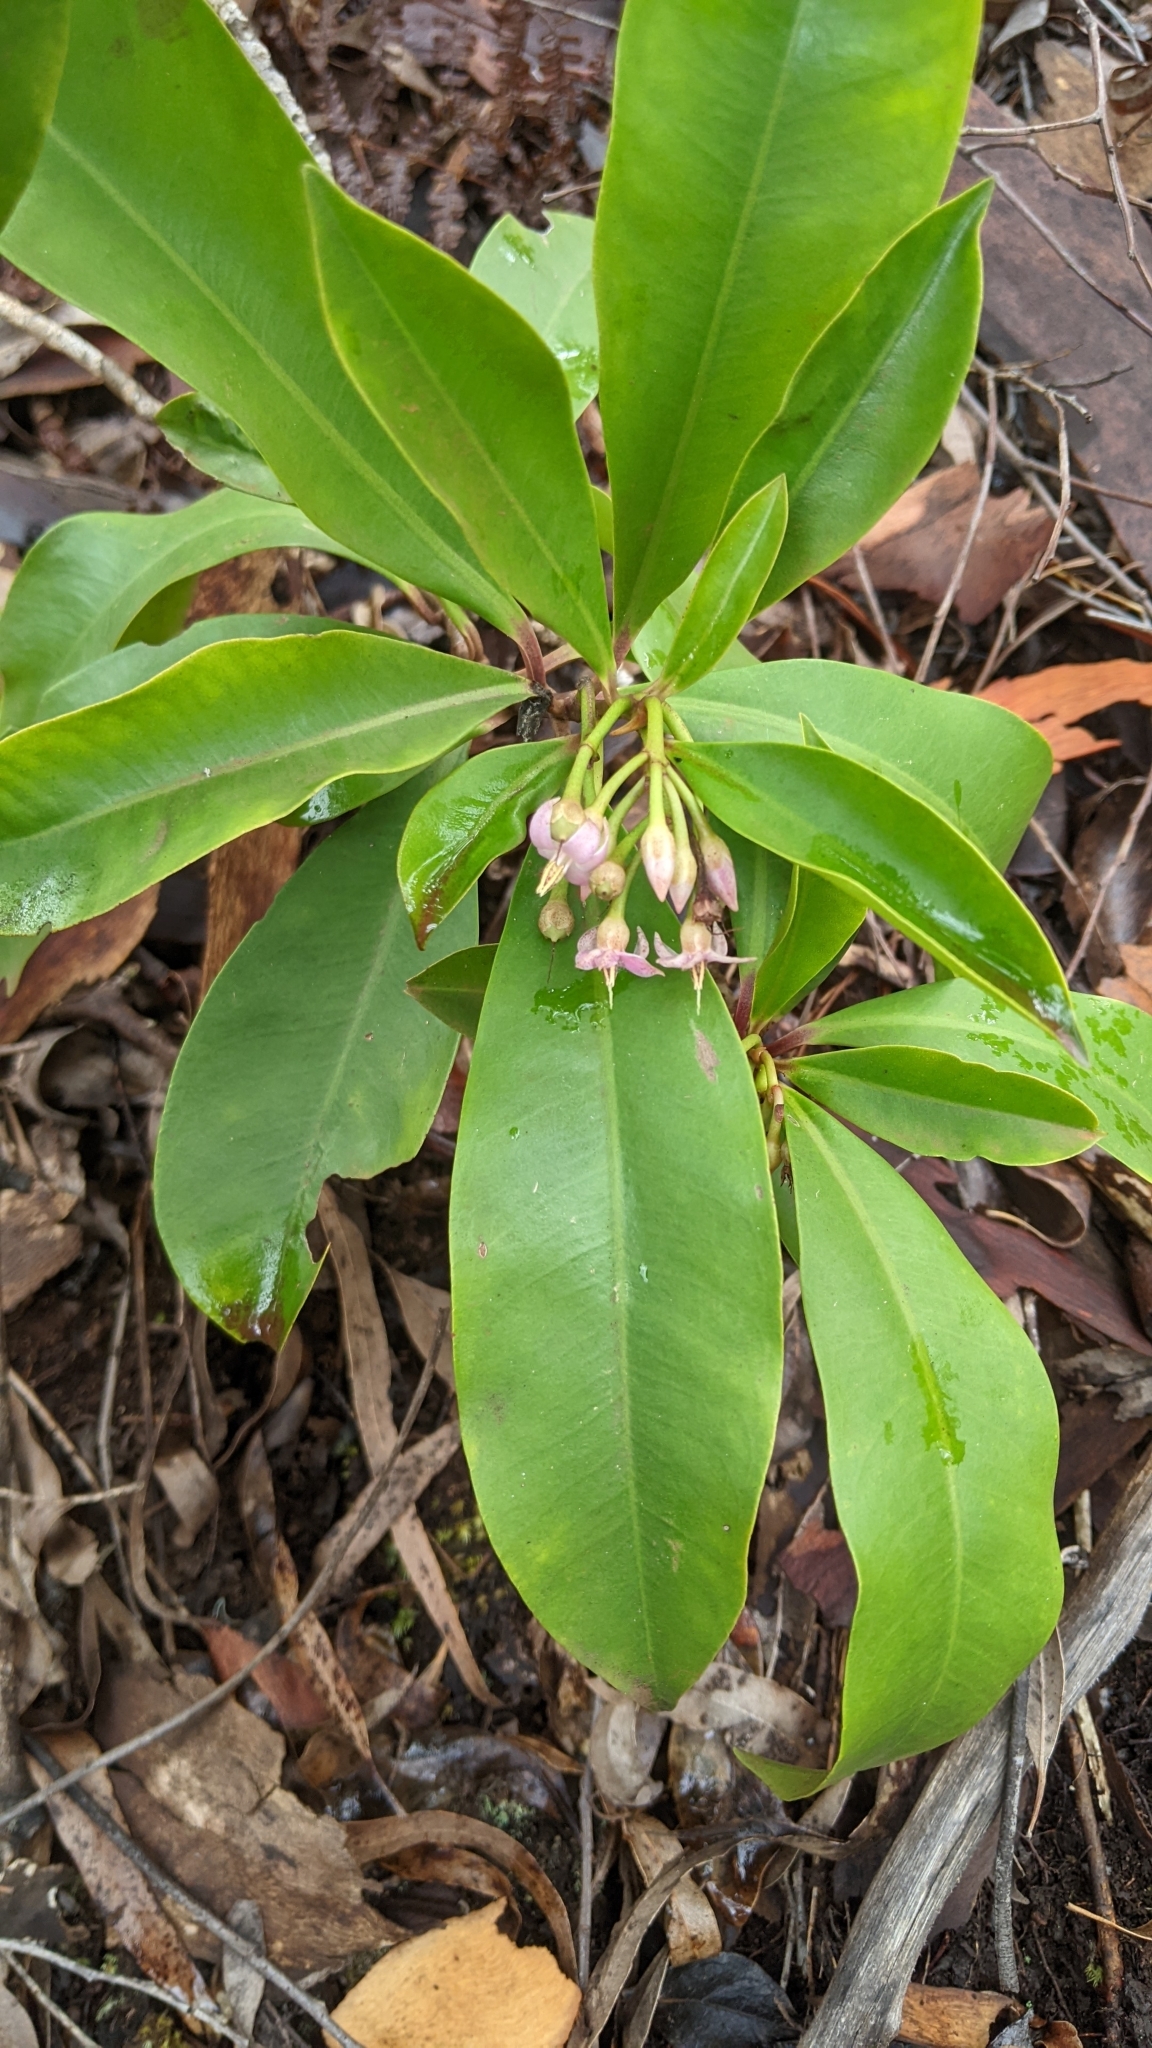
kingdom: Plantae
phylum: Tracheophyta
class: Magnoliopsida
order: Ericales
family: Primulaceae
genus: Ardisia
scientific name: Ardisia elliptica
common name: Shoebutton
